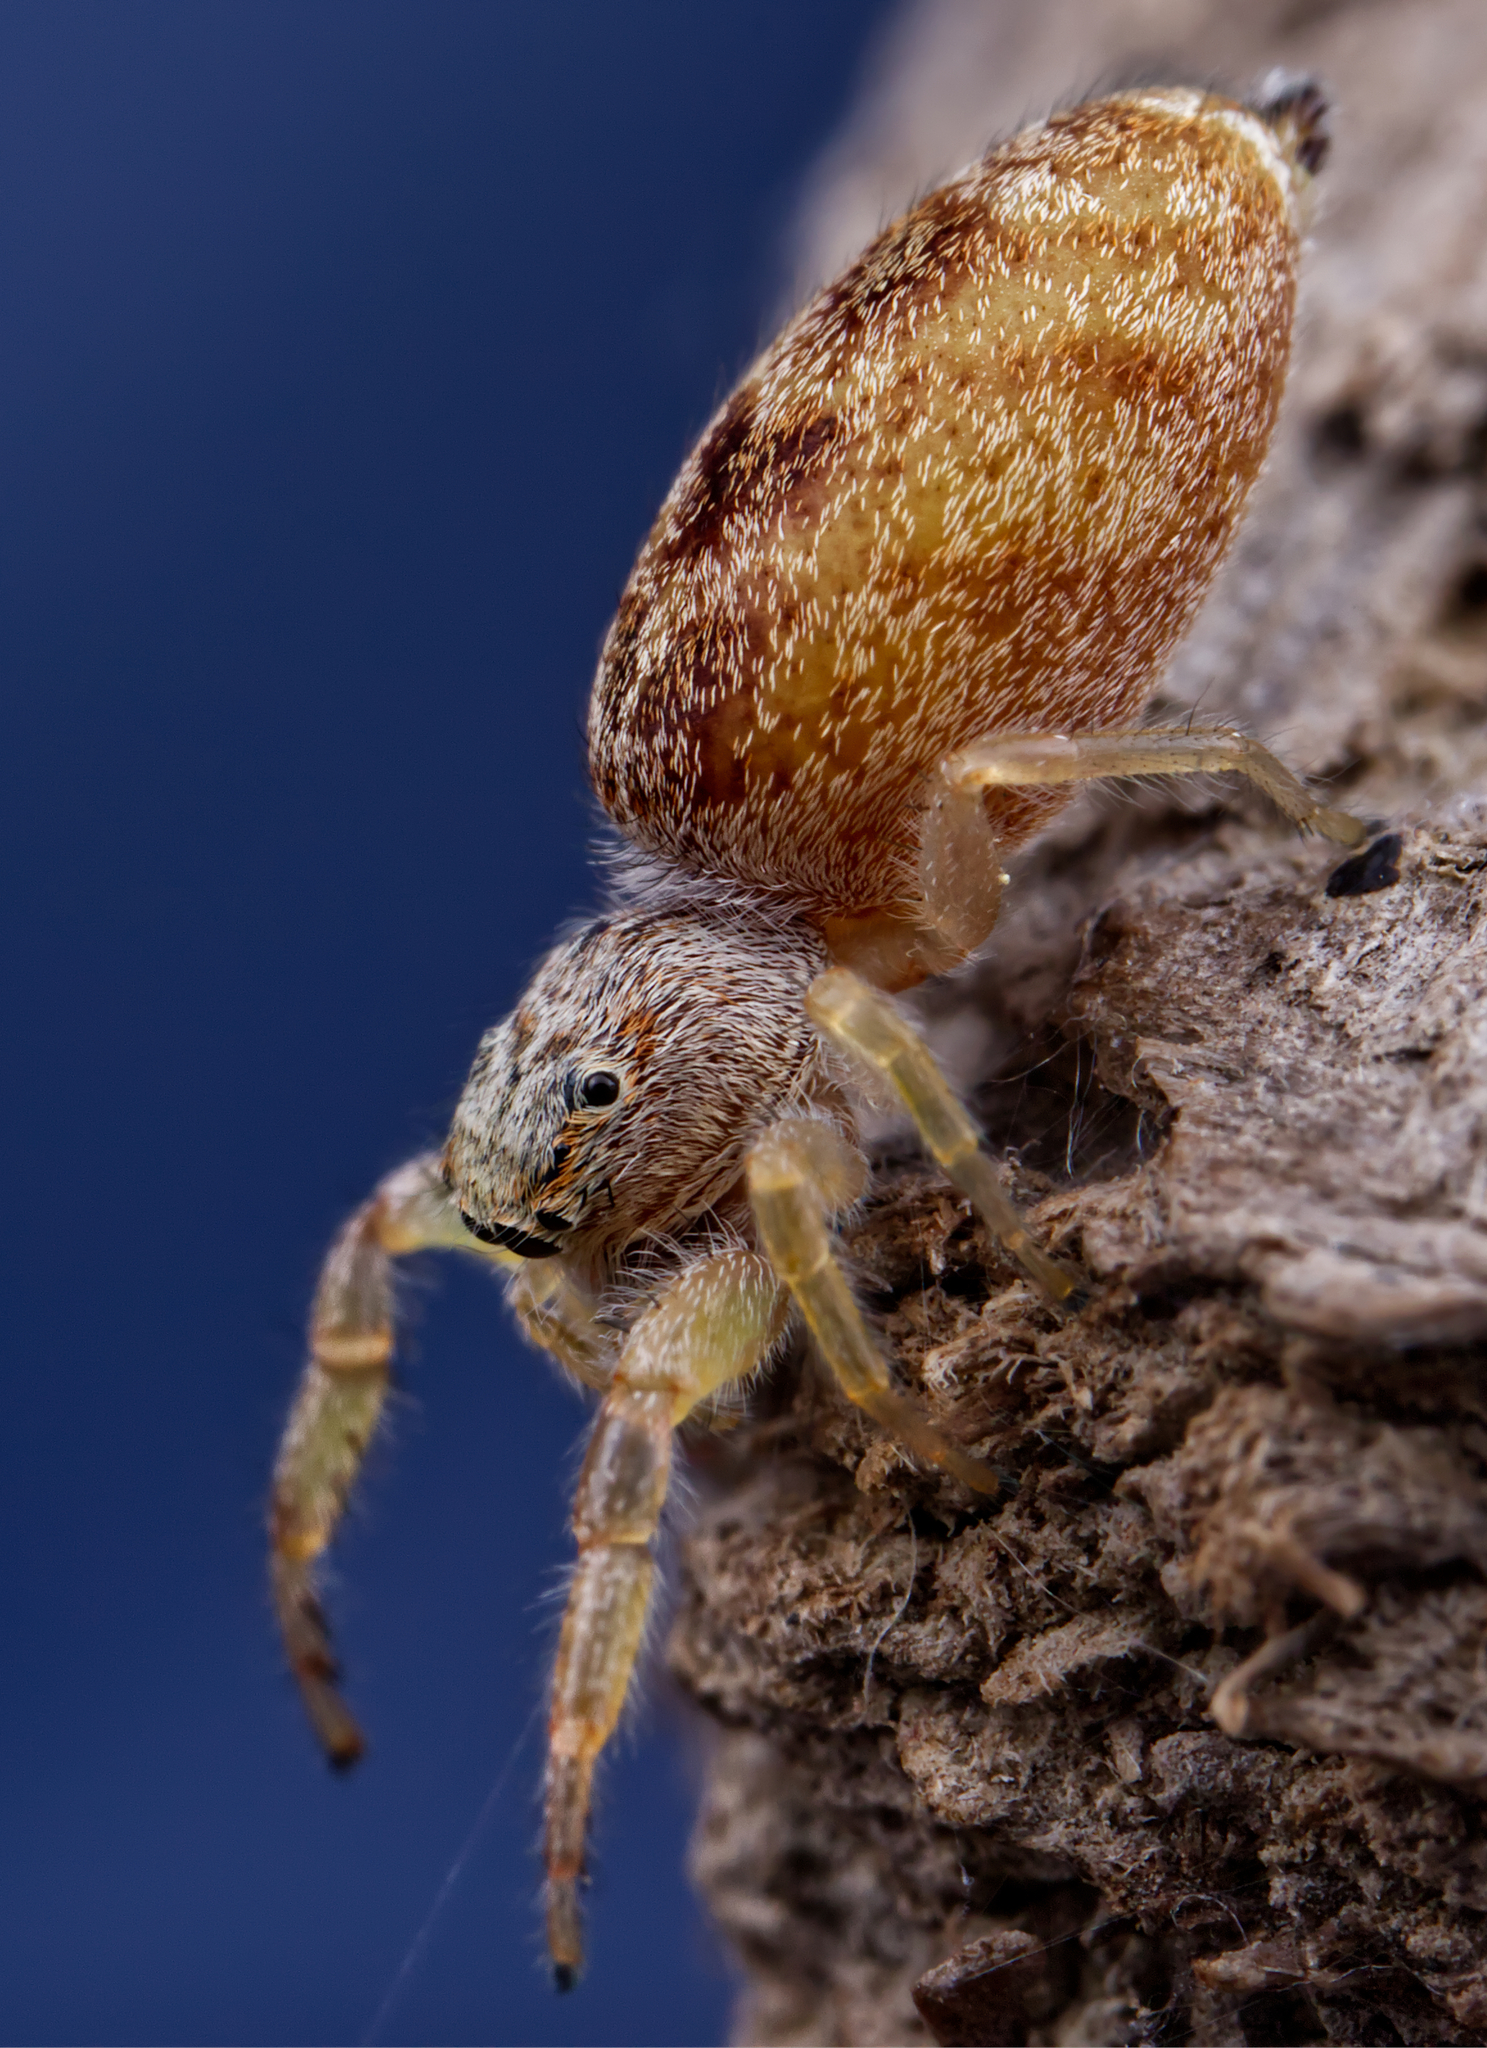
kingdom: Animalia
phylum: Arthropoda
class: Arachnida
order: Araneae
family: Salticidae
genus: Hentzia
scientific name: Hentzia mitrata
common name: White-jawed jumping spider
